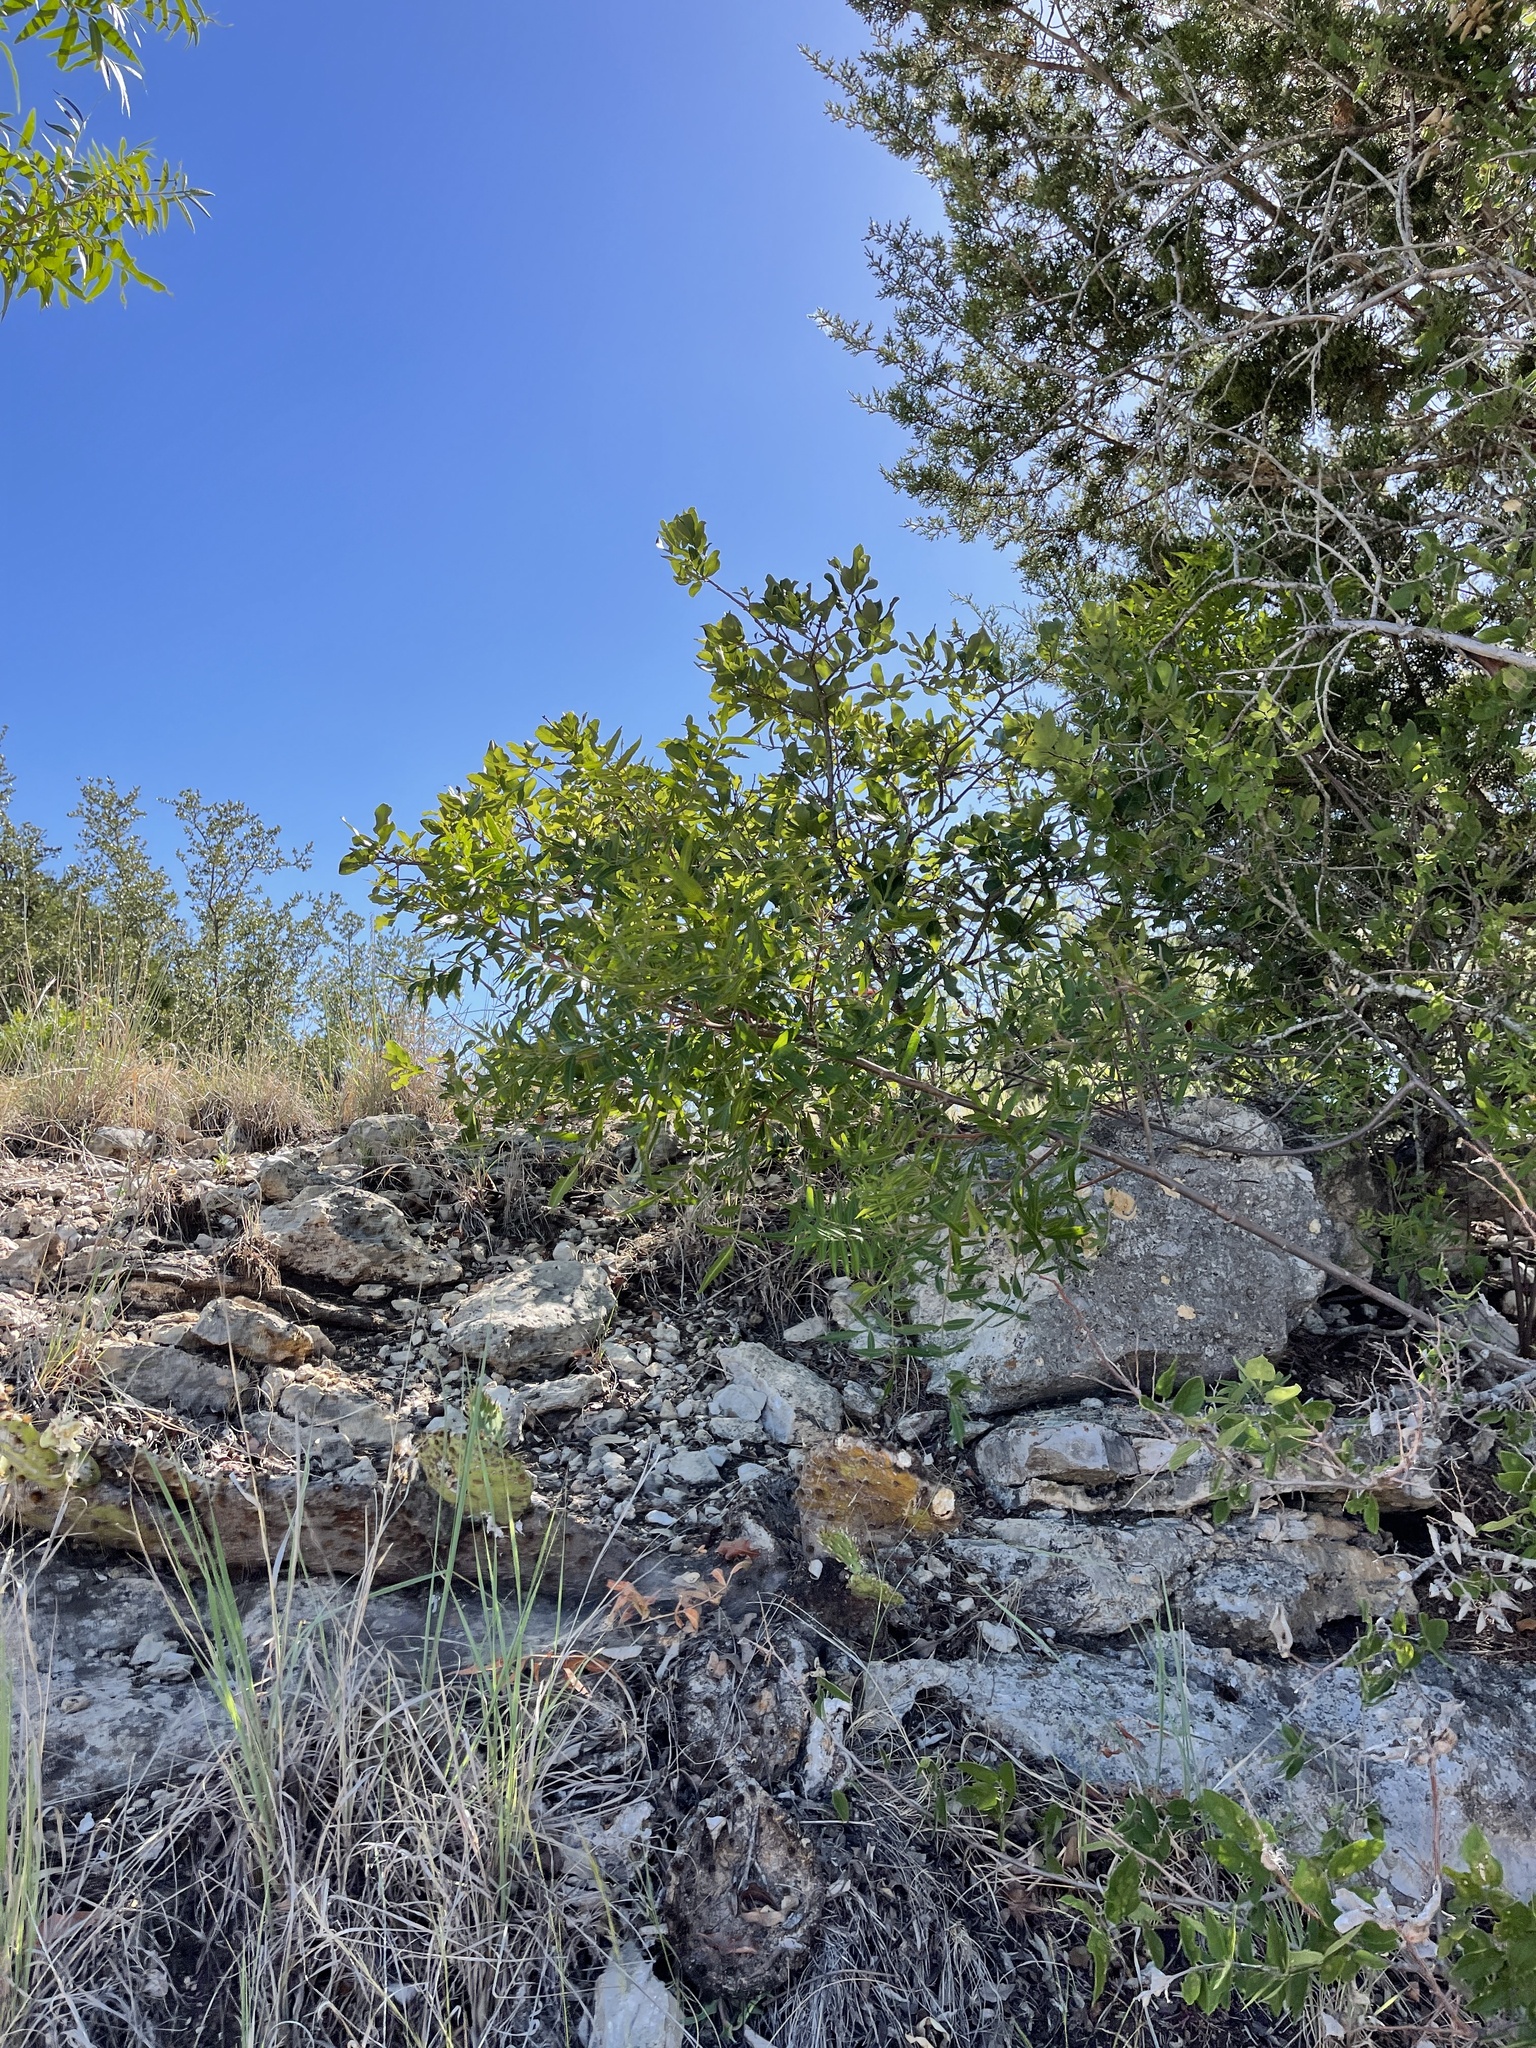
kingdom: Plantae
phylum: Tracheophyta
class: Magnoliopsida
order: Sapindales
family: Anacardiaceae
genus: Rhus
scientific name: Rhus lanceolata
